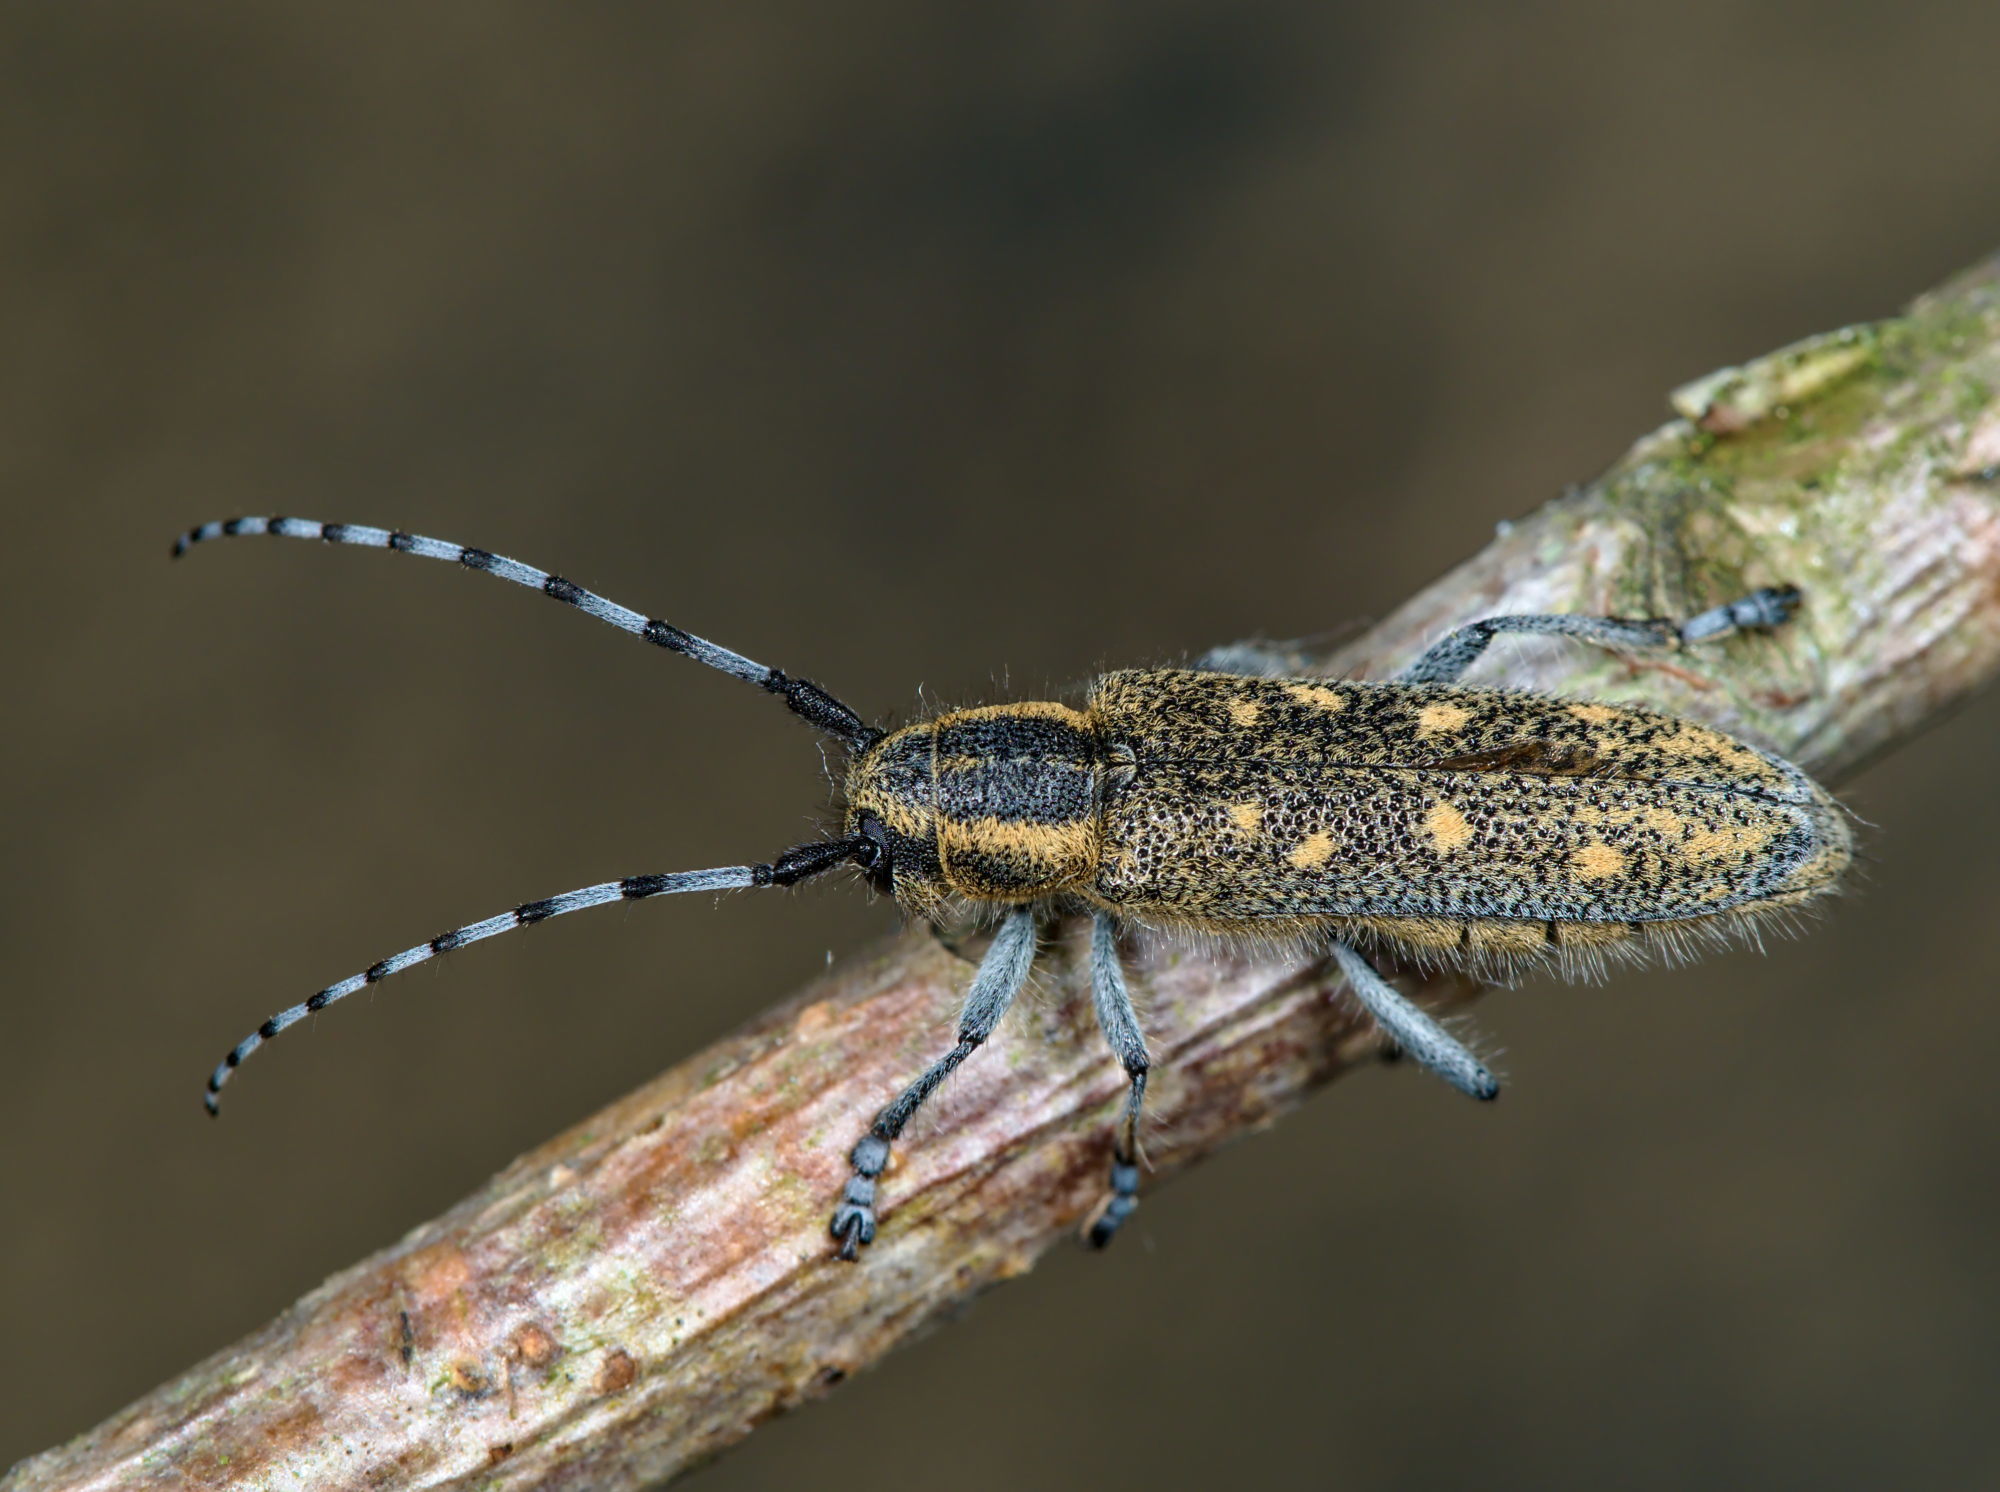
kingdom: Animalia
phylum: Arthropoda
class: Insecta
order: Coleoptera
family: Cerambycidae
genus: Saperda
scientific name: Saperda populnea
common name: Small poplar borer
